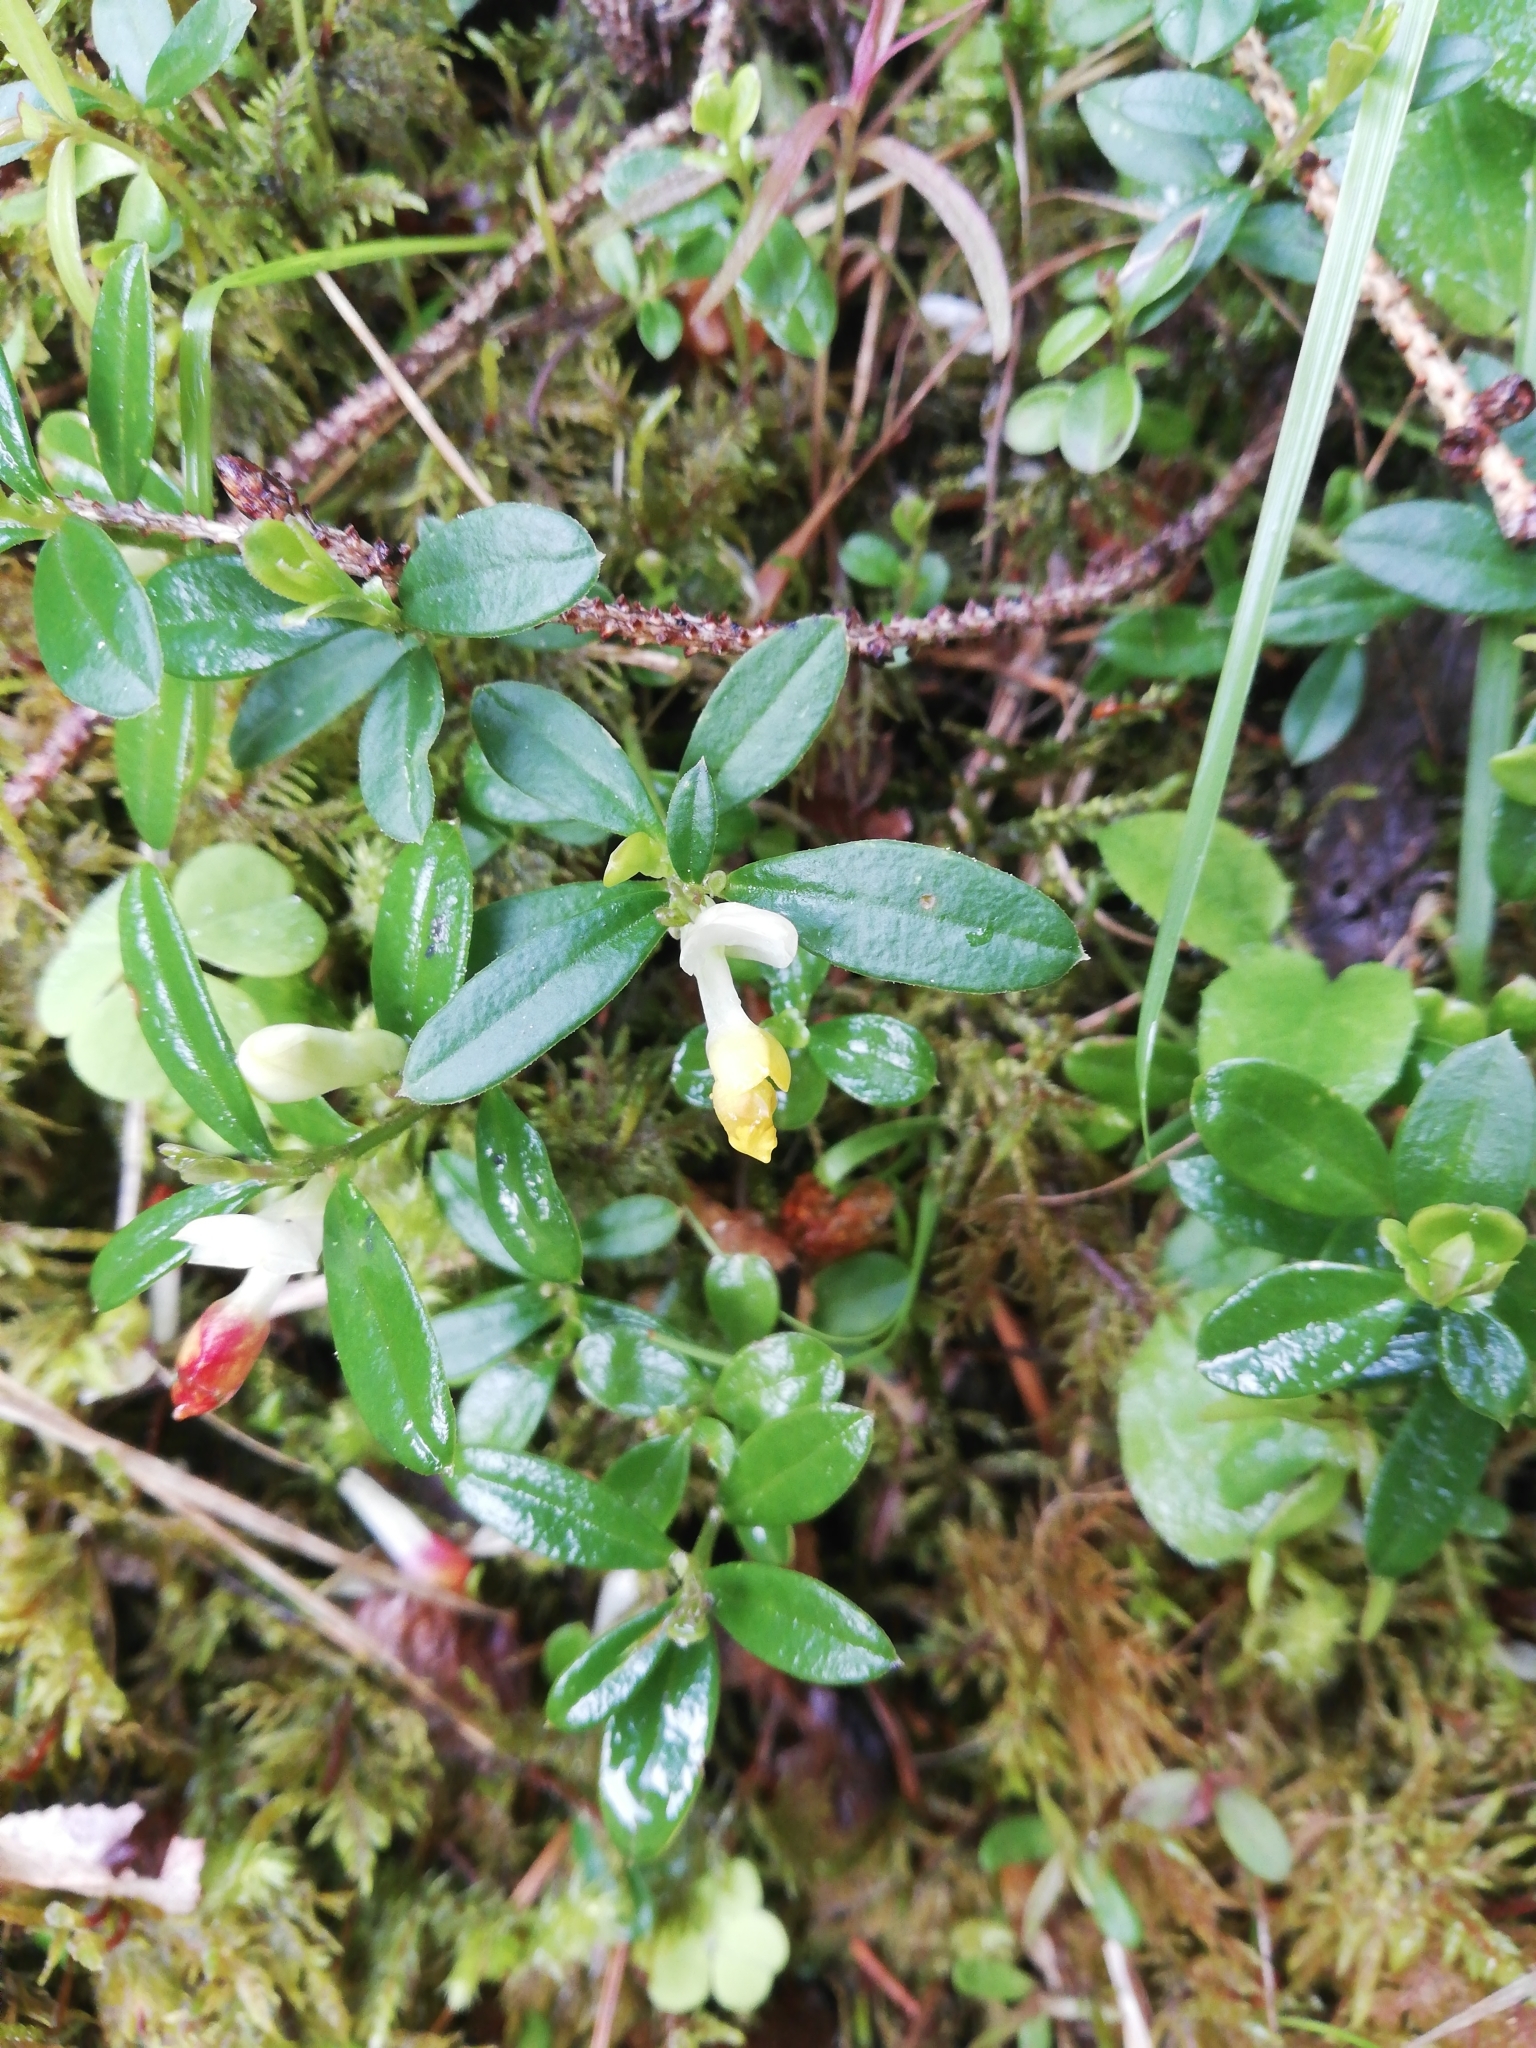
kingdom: Plantae
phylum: Tracheophyta
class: Magnoliopsida
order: Fabales
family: Polygalaceae
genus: Polygaloides
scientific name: Polygaloides chamaebuxus
